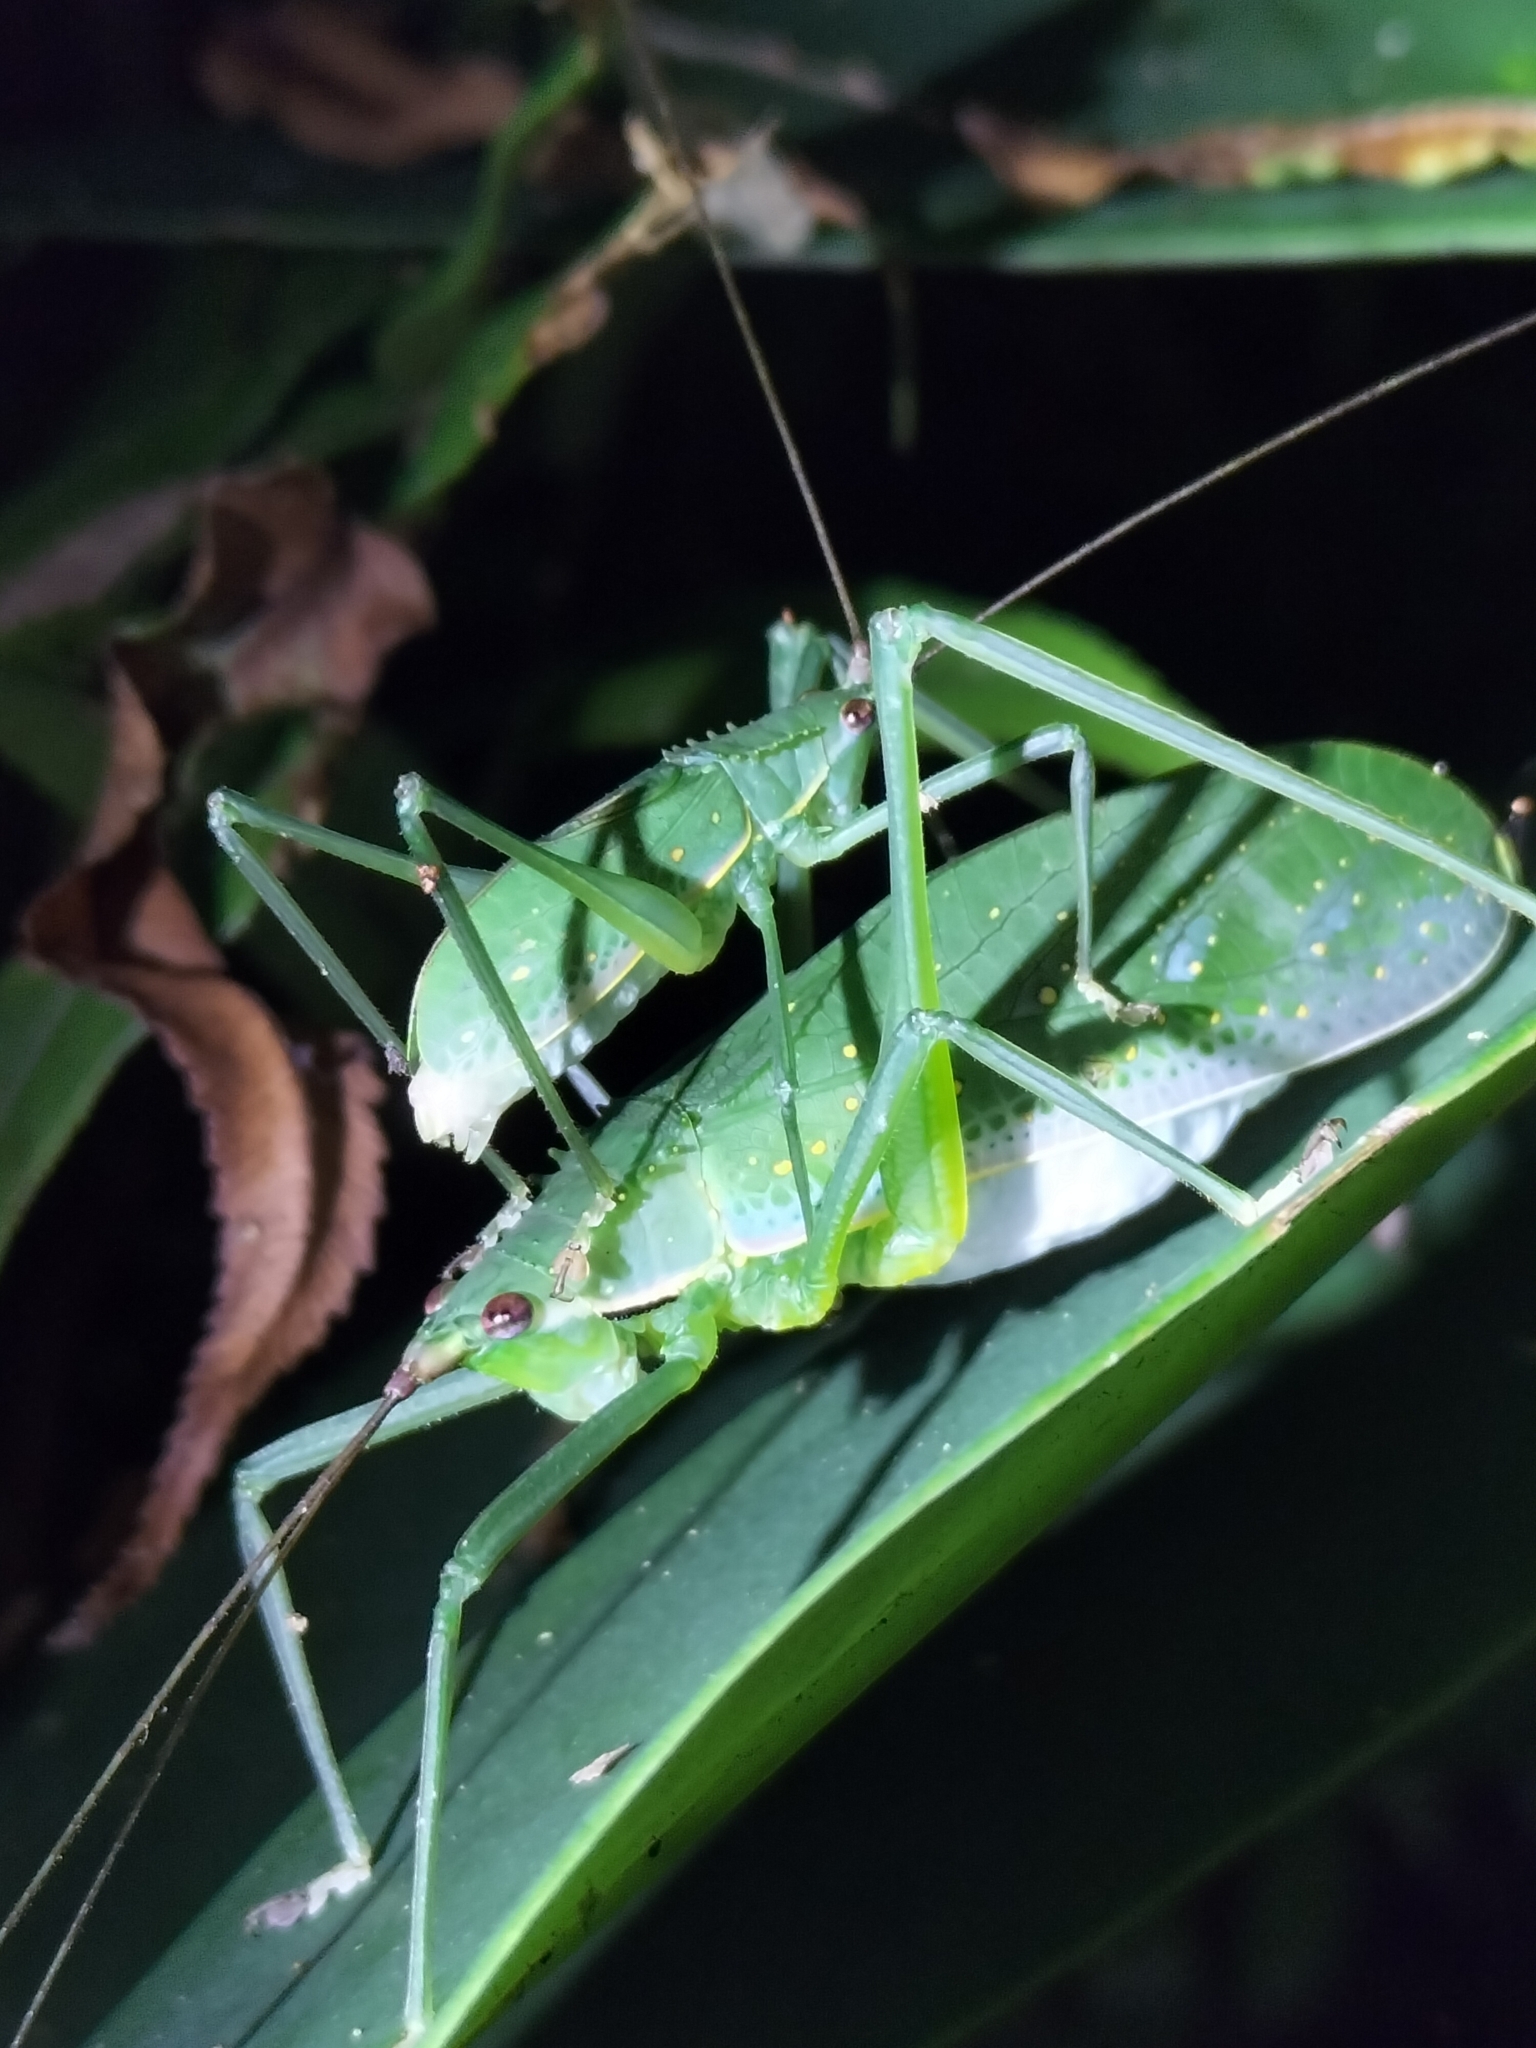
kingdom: Animalia
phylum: Arthropoda
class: Insecta
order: Orthoptera
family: Tettigoniidae
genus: Chloracantha
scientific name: Chloracantha lampra
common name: Delicate false-leaf katydid
